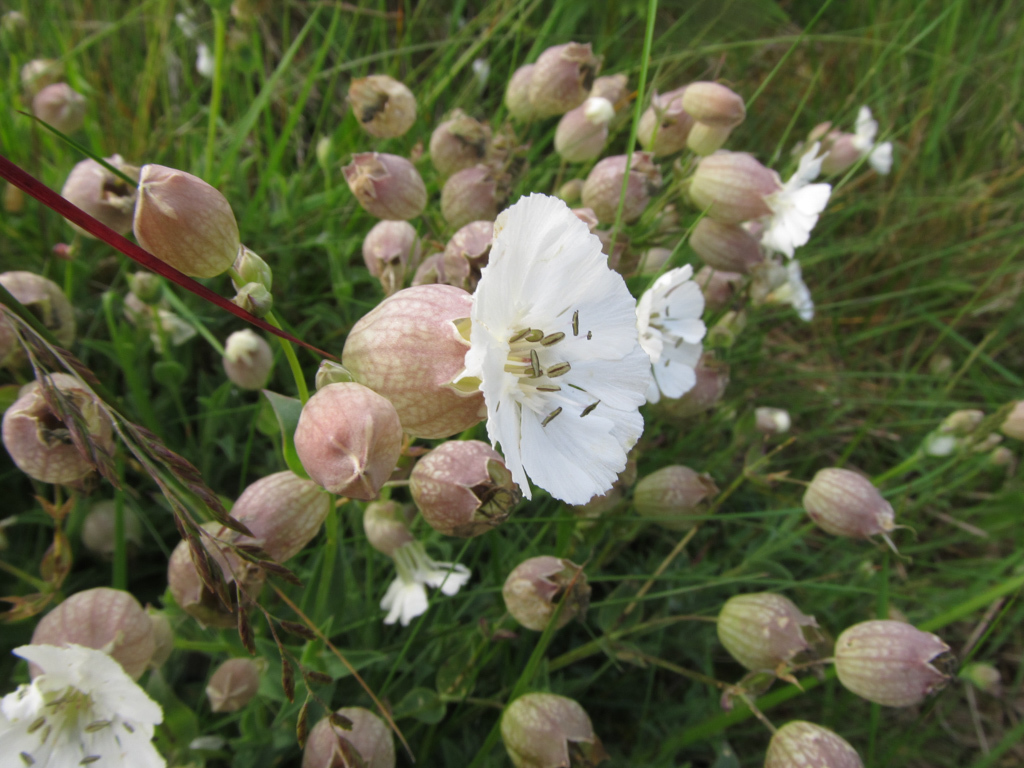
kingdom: Plantae
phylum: Tracheophyta
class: Magnoliopsida
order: Caryophyllales
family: Caryophyllaceae
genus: Silene
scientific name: Silene vulgaris
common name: Bladder campion
